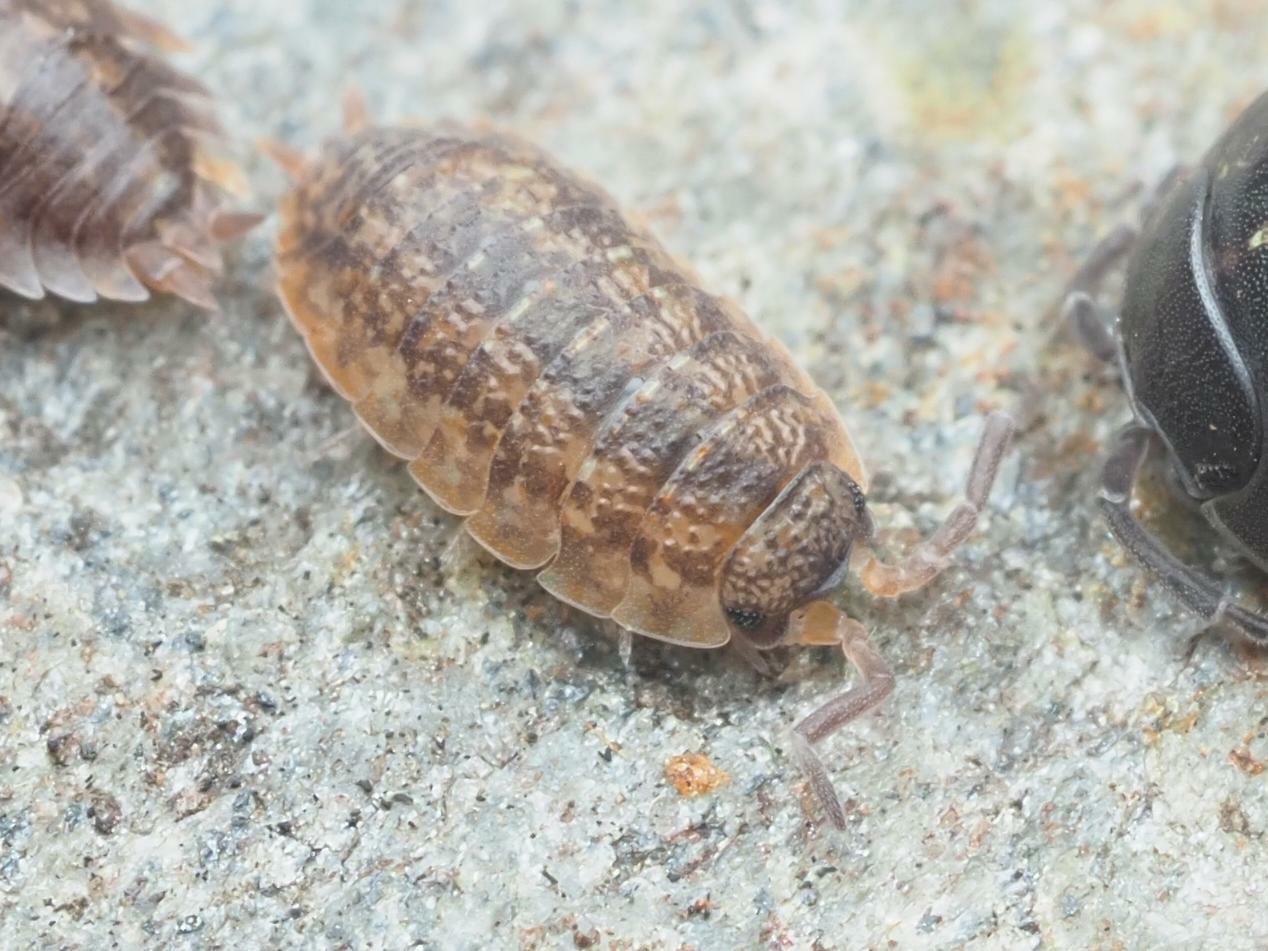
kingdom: Animalia
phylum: Arthropoda
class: Malacostraca
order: Isopoda
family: Porcellionidae
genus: Porcellio
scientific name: Porcellio scaber
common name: Common rough woodlouse
